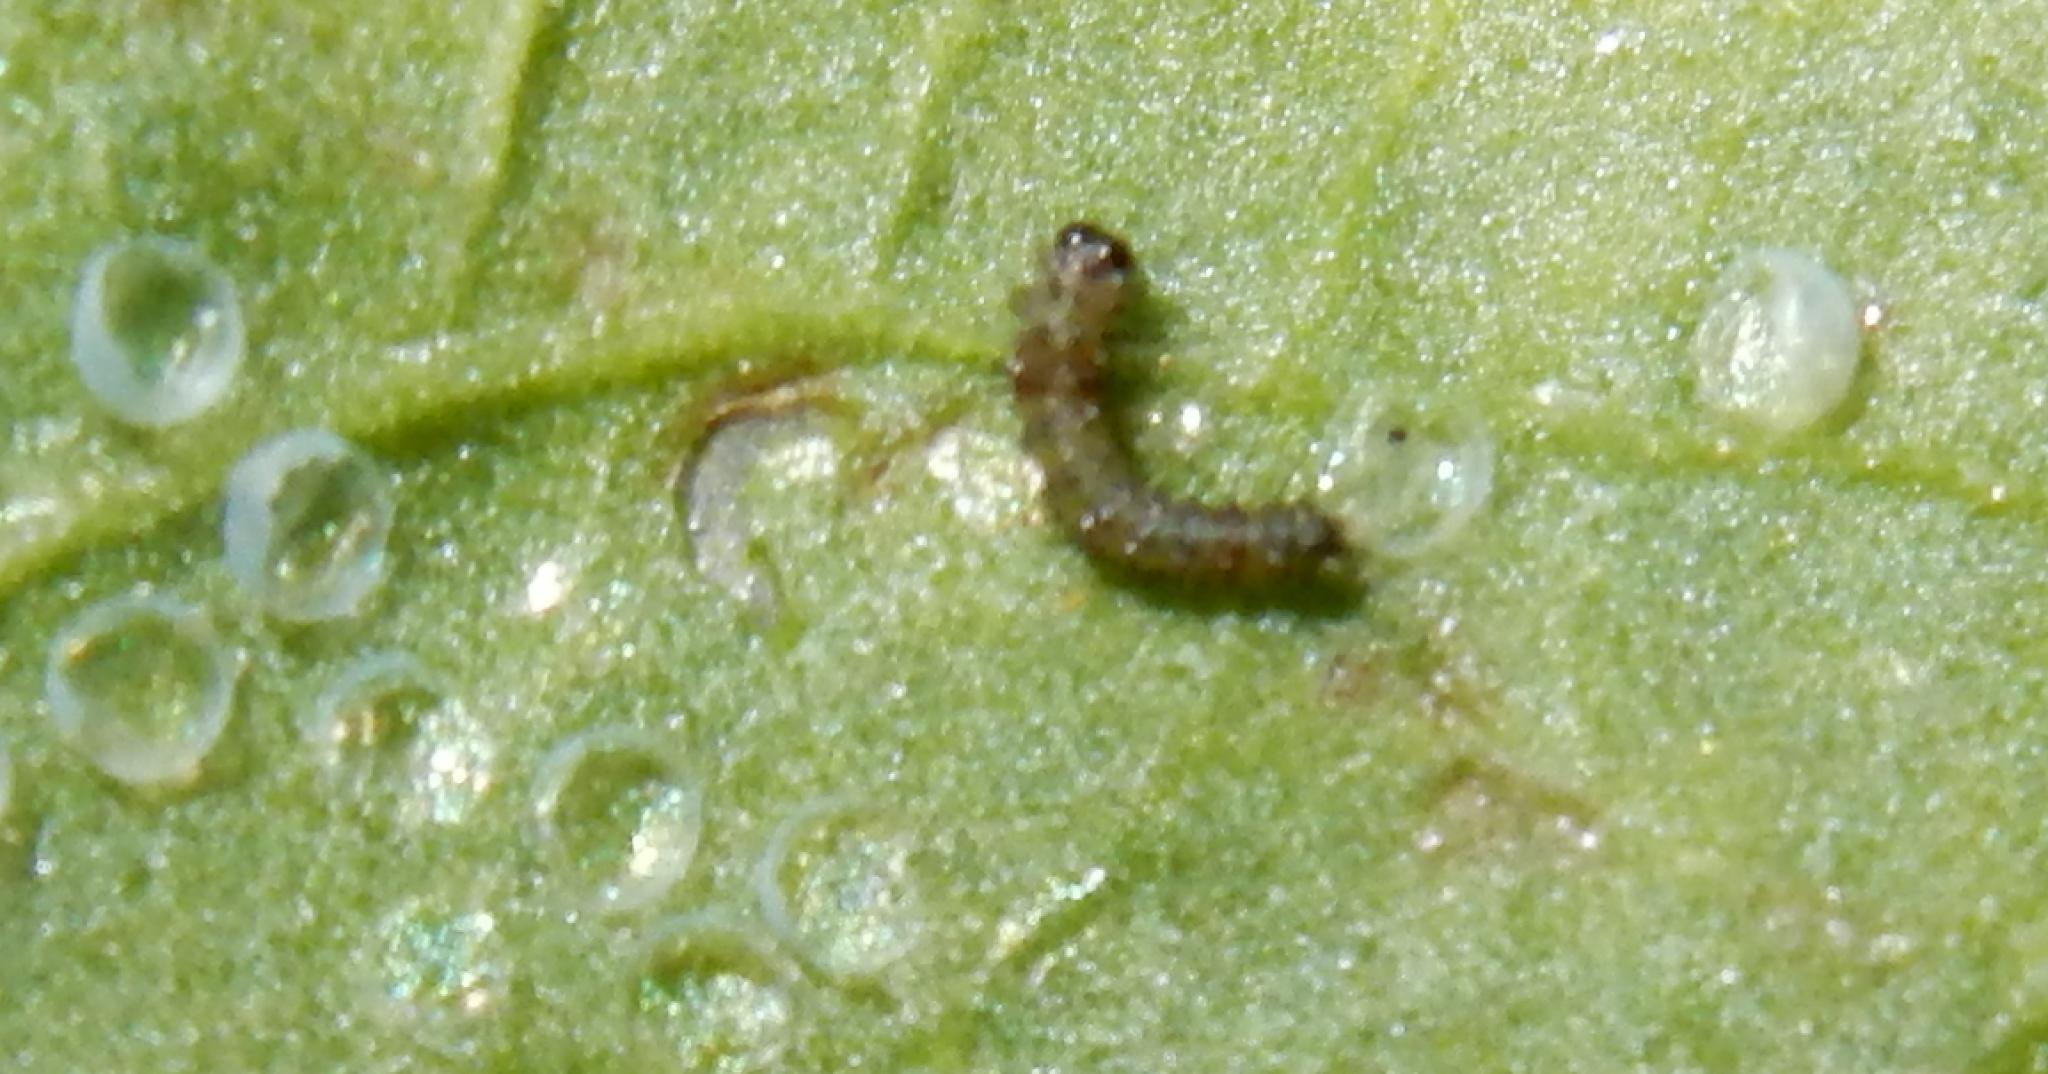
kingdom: Animalia
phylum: Arthropoda
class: Insecta
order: Lepidoptera
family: Erebidae
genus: Afromurzinia
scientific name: Afromurzinia lutescens
